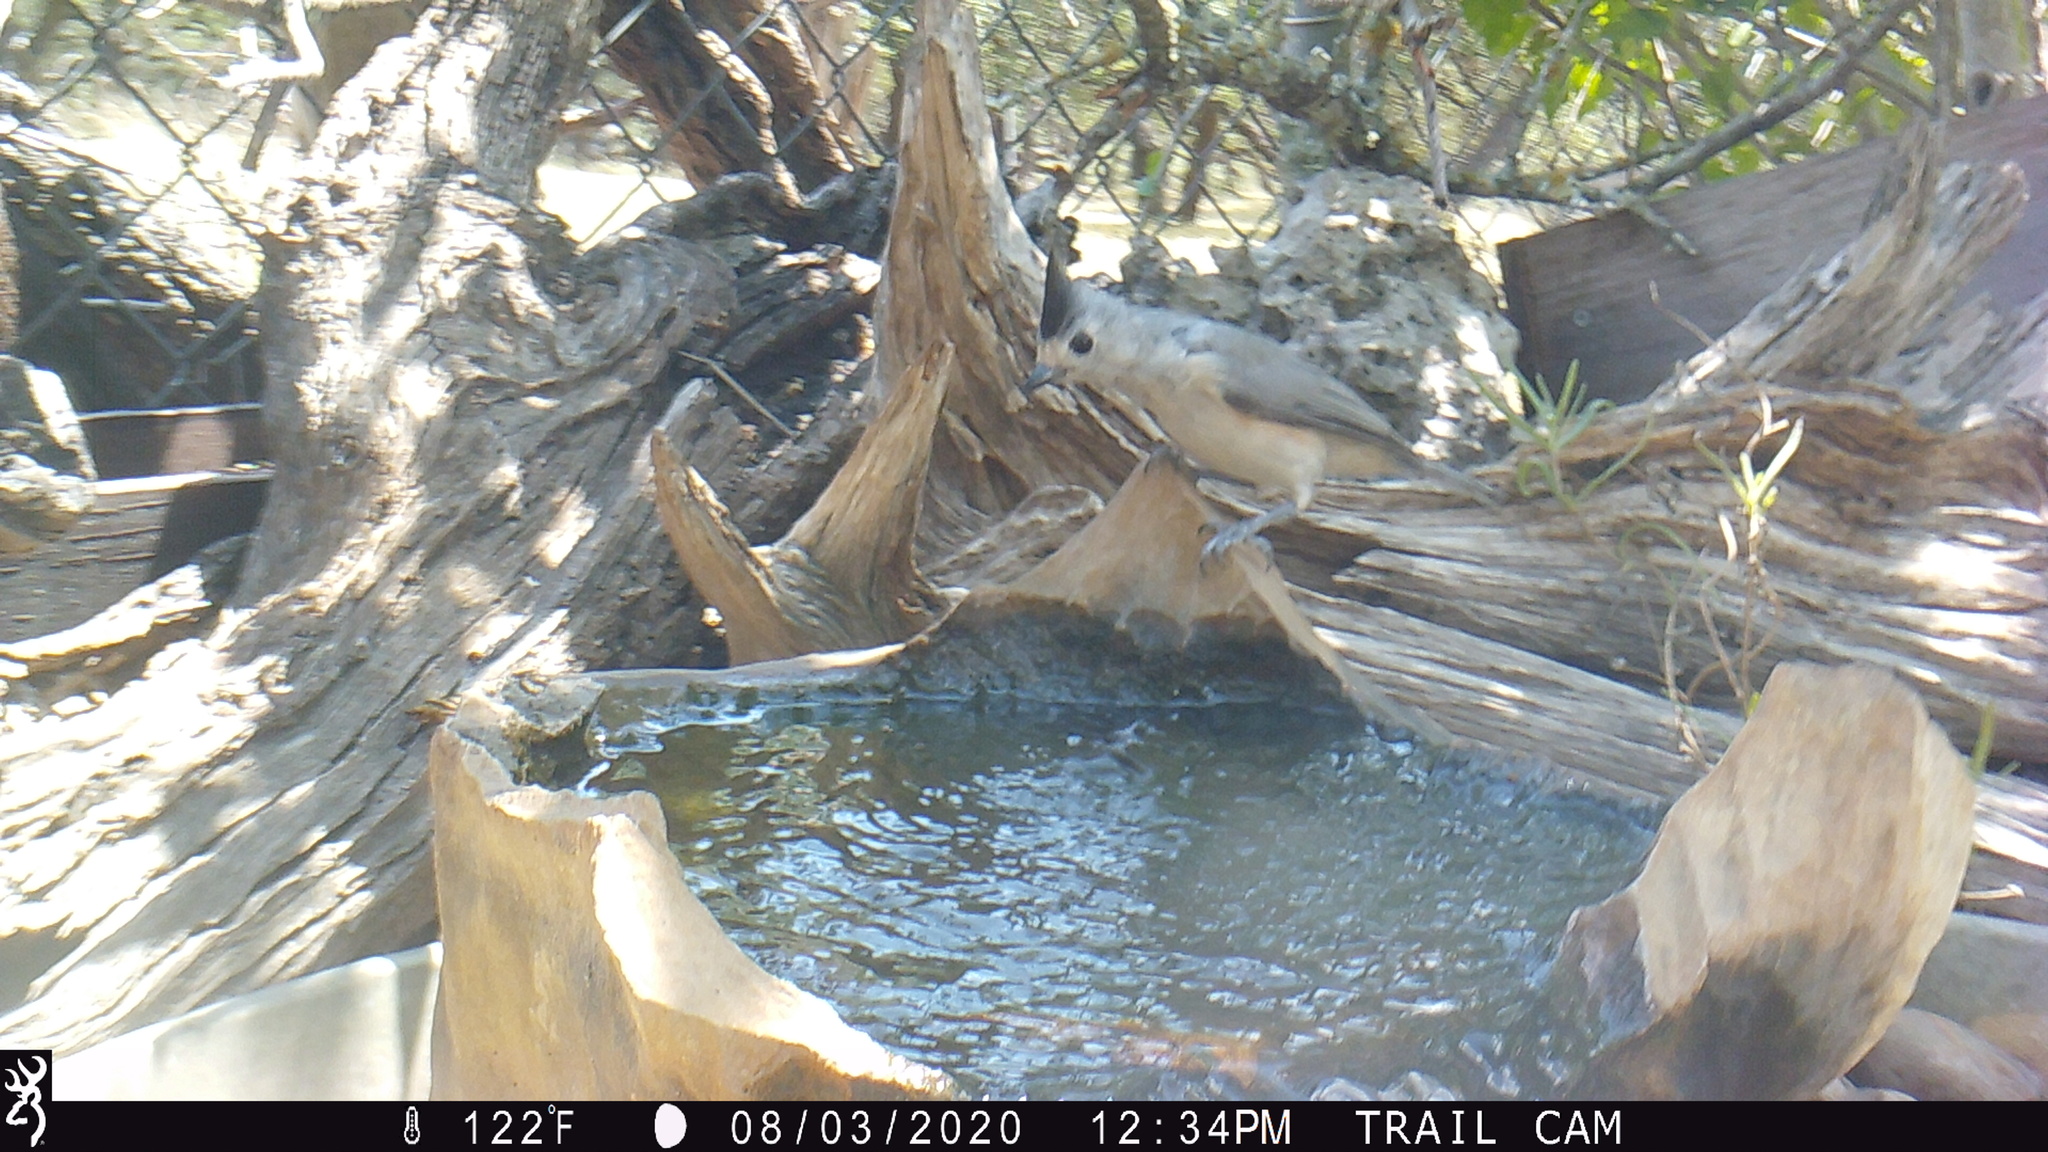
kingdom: Animalia
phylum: Chordata
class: Aves
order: Passeriformes
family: Paridae
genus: Baeolophus
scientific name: Baeolophus atricristatus
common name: Black-crested titmouse
